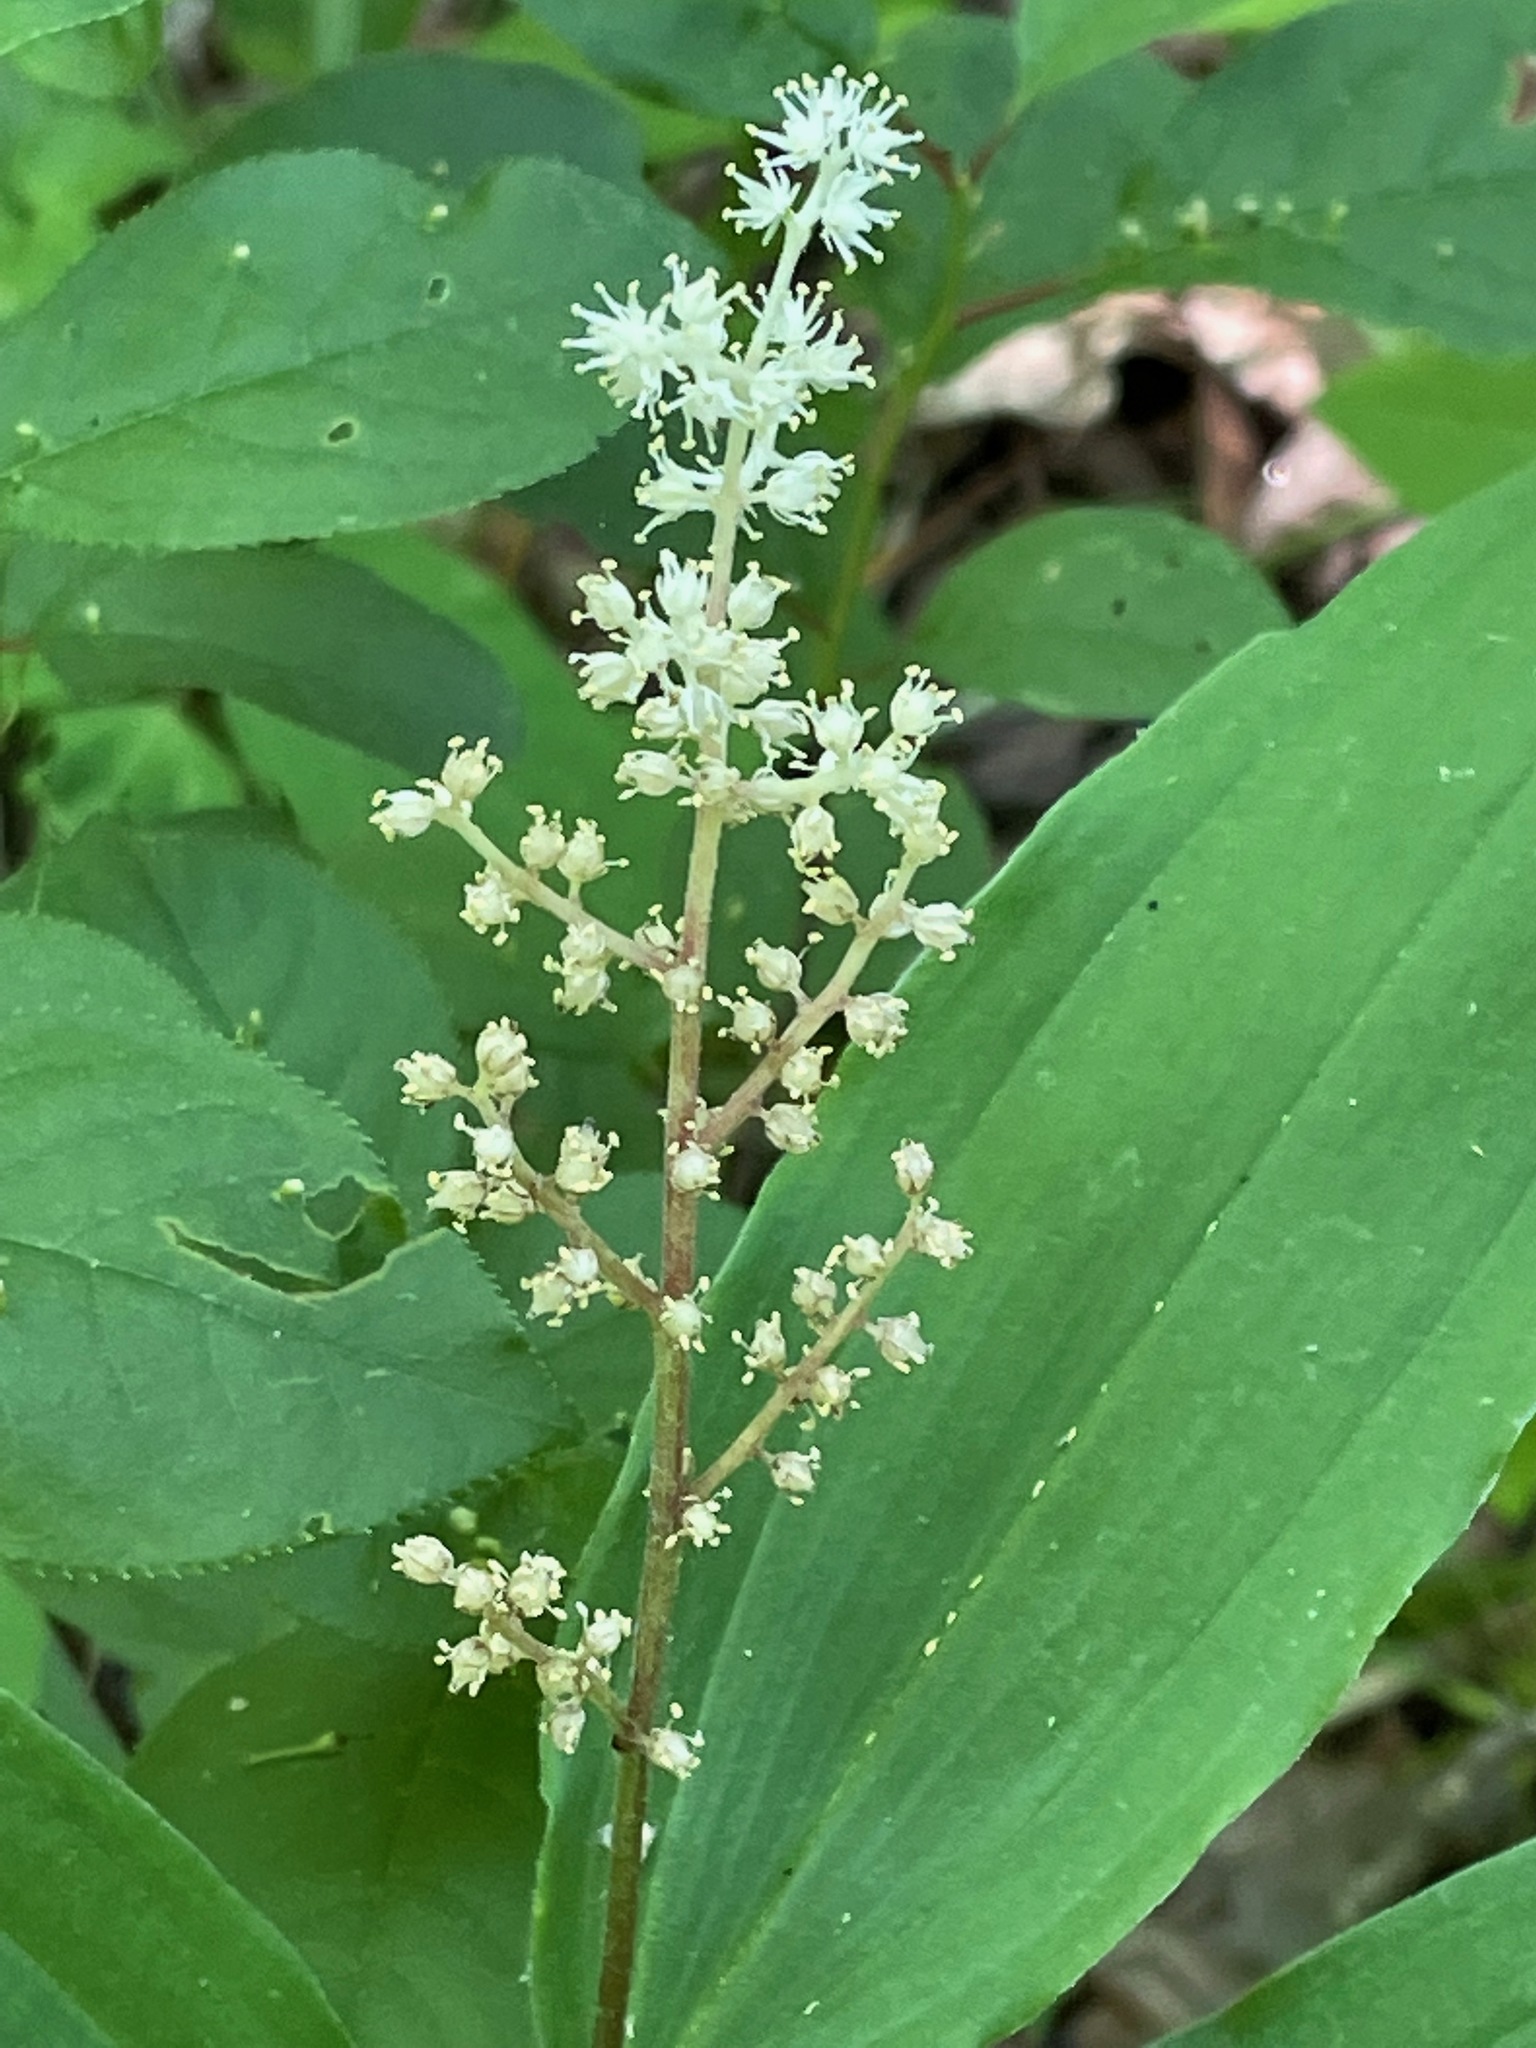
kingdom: Plantae
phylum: Tracheophyta
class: Liliopsida
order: Asparagales
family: Asparagaceae
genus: Maianthemum
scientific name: Maianthemum racemosum
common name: False spikenard
